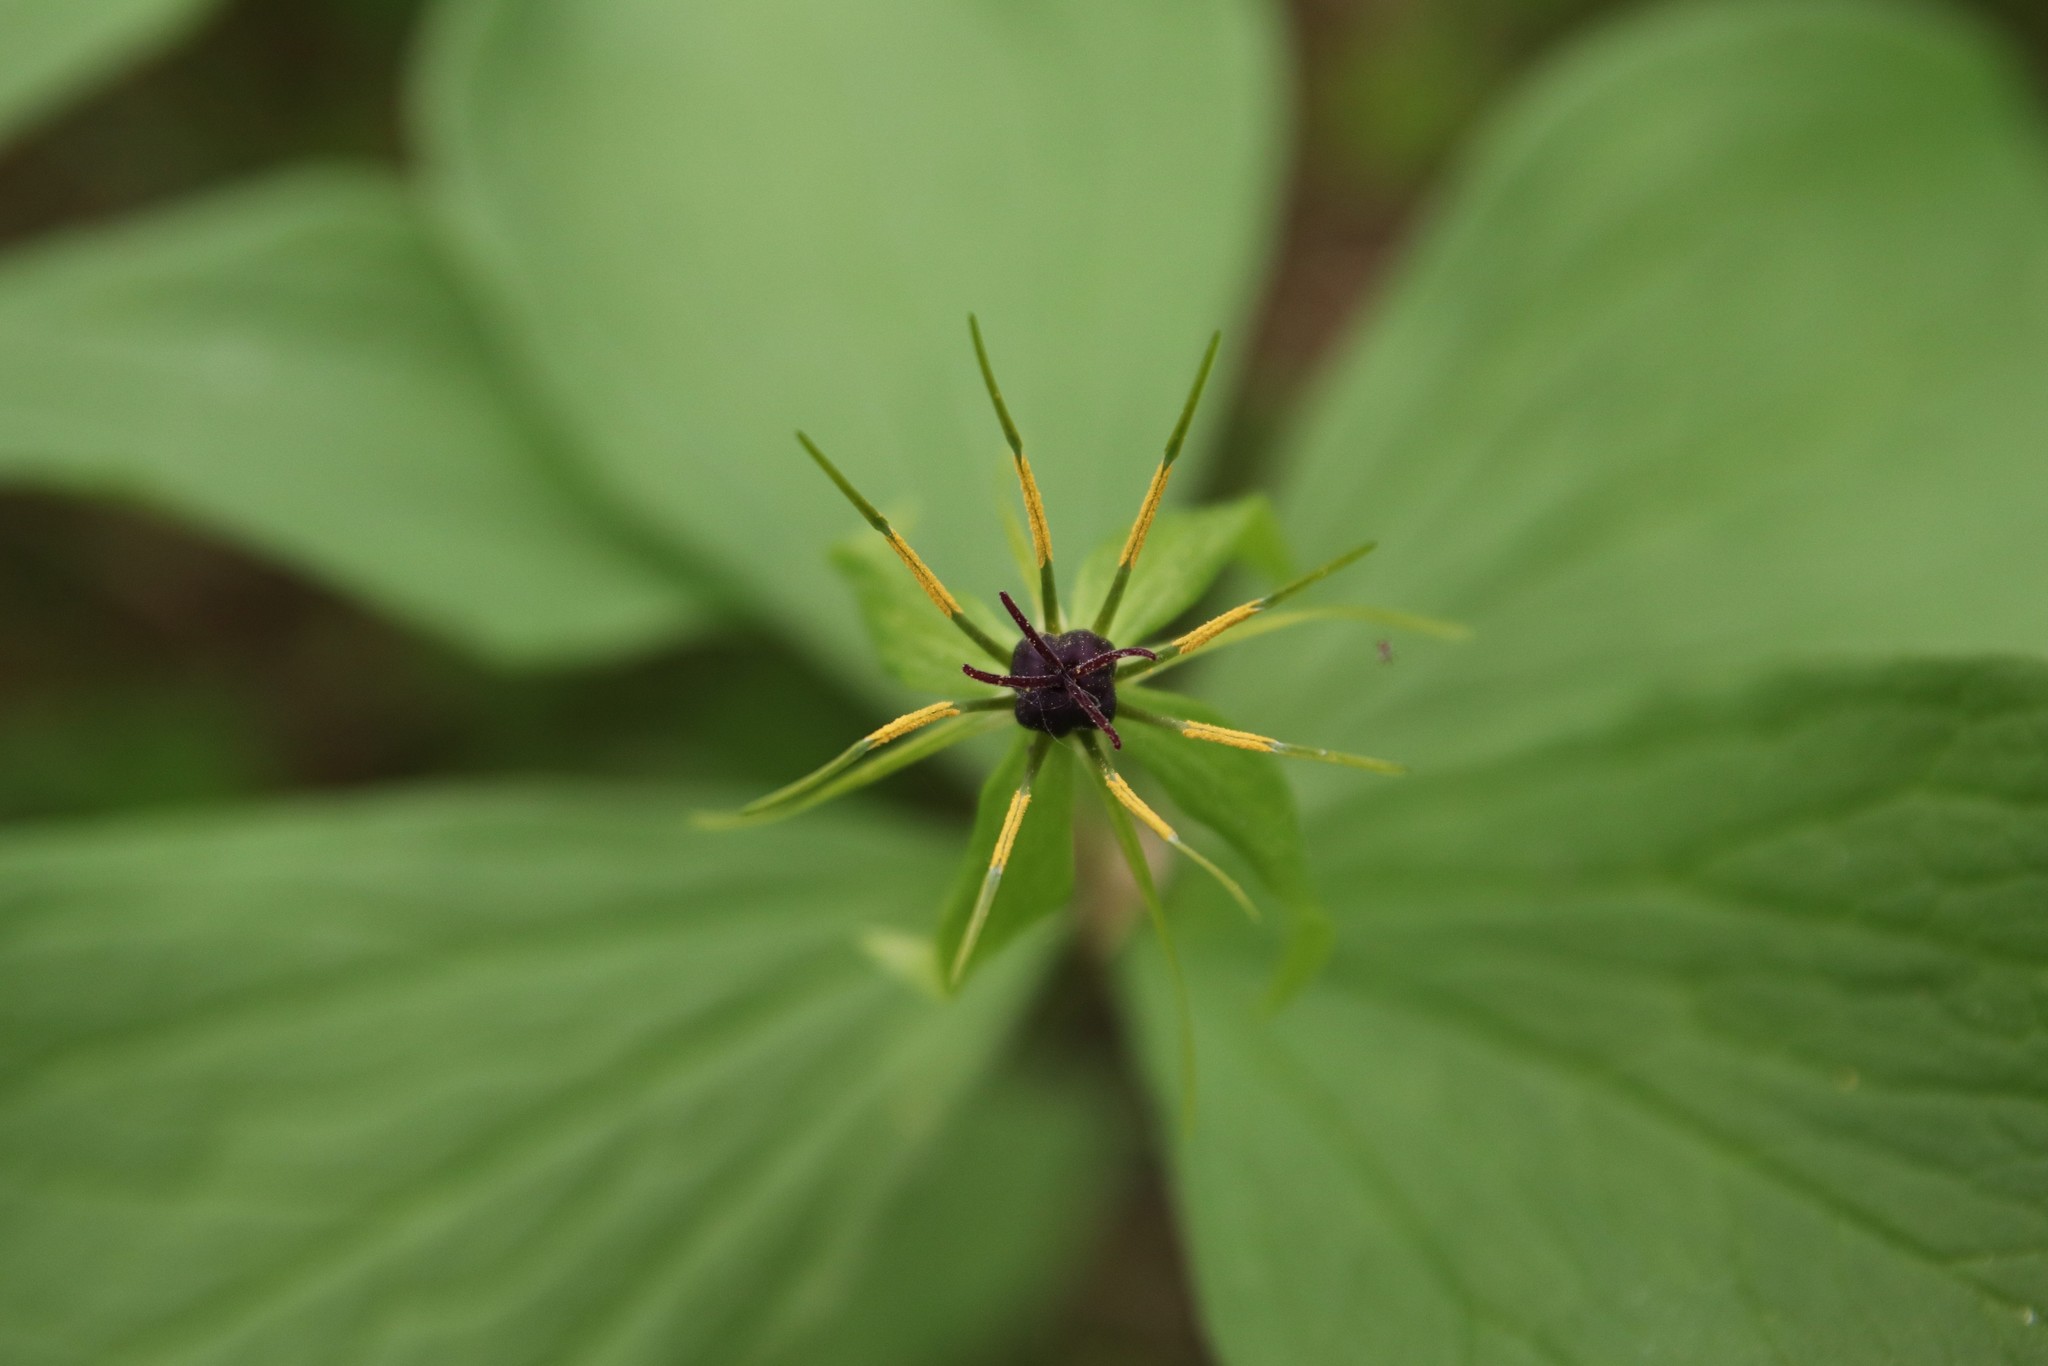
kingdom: Plantae
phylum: Tracheophyta
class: Liliopsida
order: Liliales
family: Melanthiaceae
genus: Paris
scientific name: Paris quadrifolia
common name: Herb-paris
